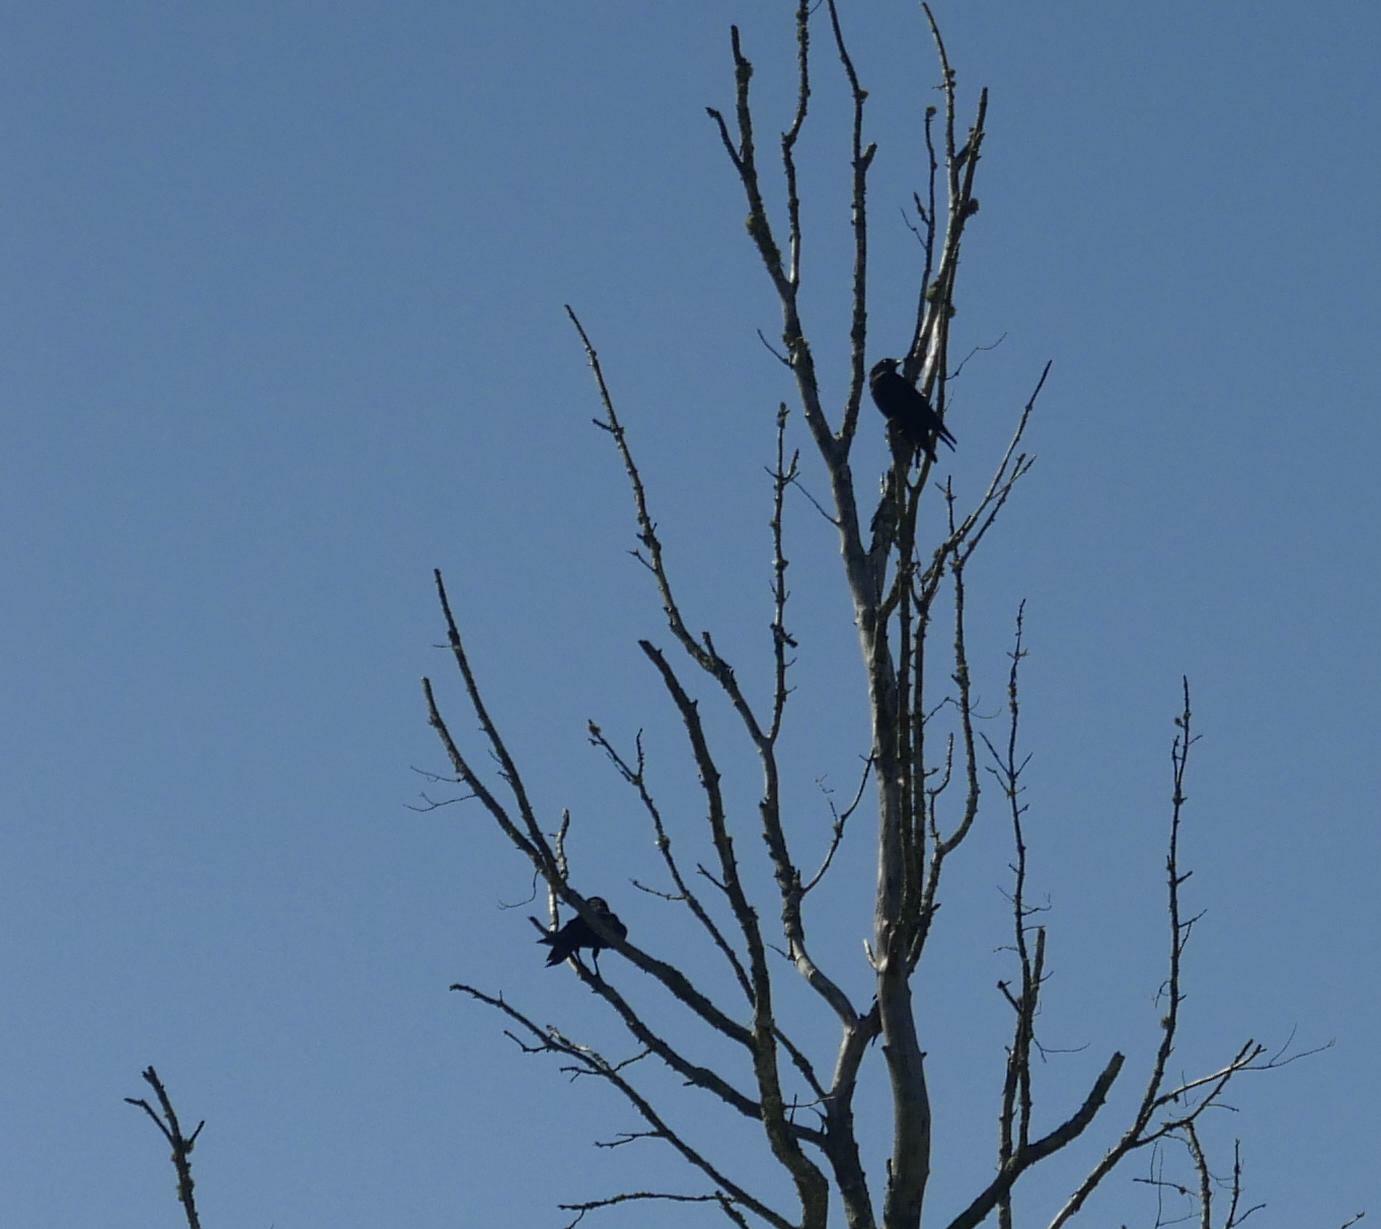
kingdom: Animalia
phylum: Chordata
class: Aves
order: Passeriformes
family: Corvidae
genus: Corvus
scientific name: Corvus brachyrhynchos
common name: American crow
